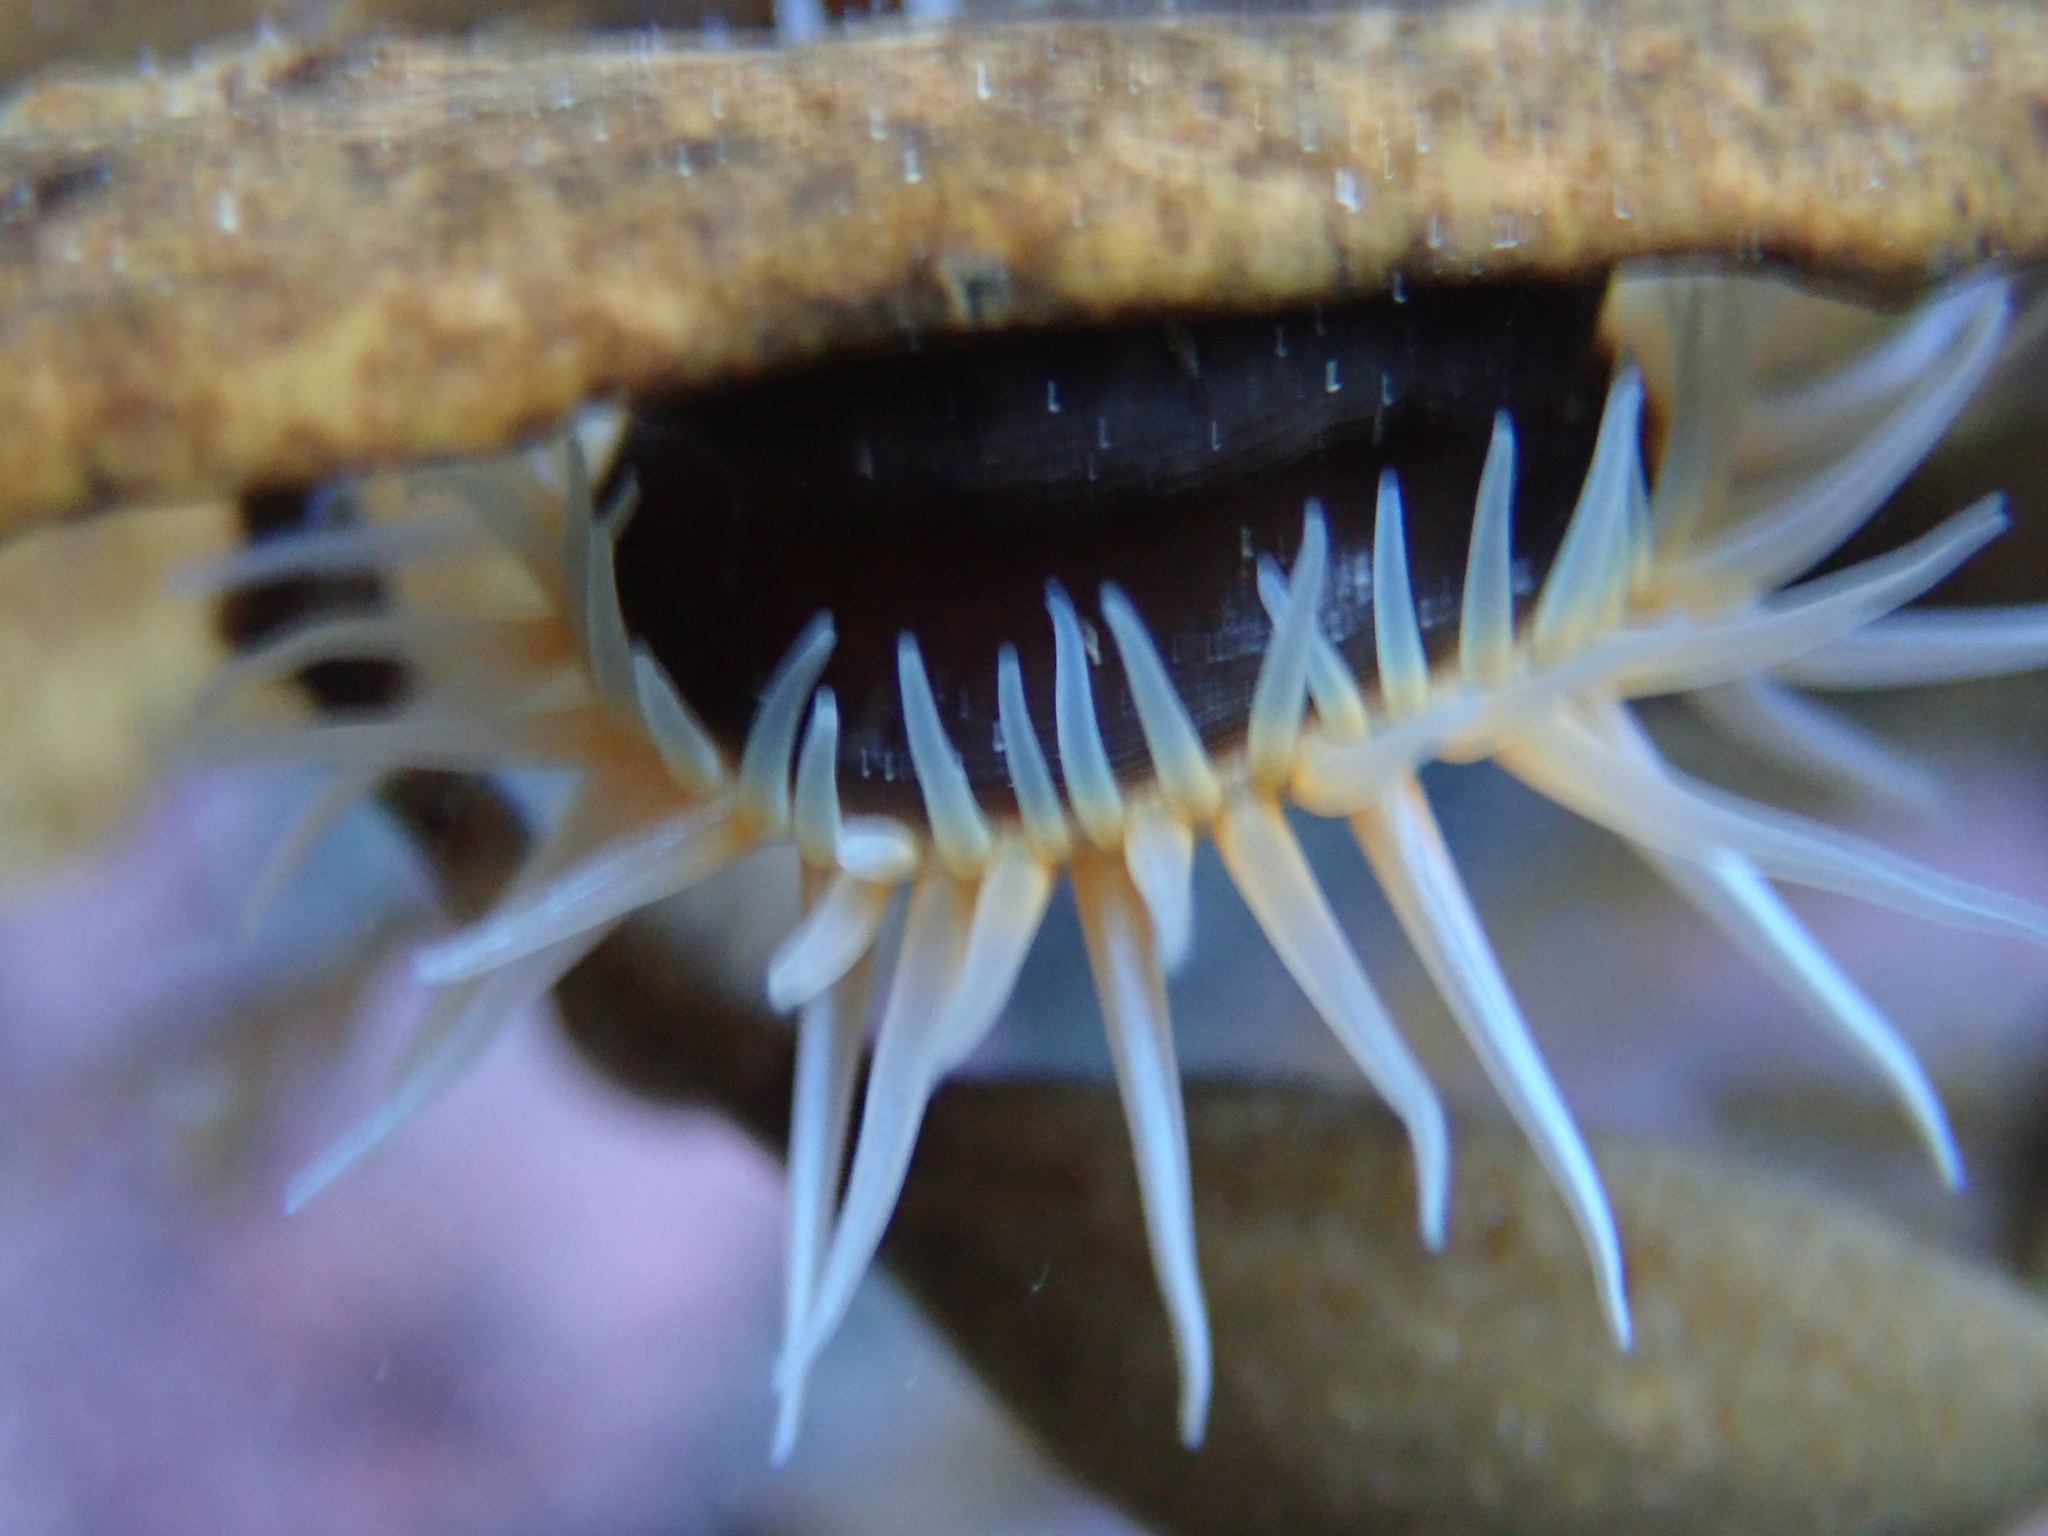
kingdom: Animalia
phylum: Cnidaria
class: Anthozoa
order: Actiniaria
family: Hormathiidae
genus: Handactis
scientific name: Handactis nutrix
